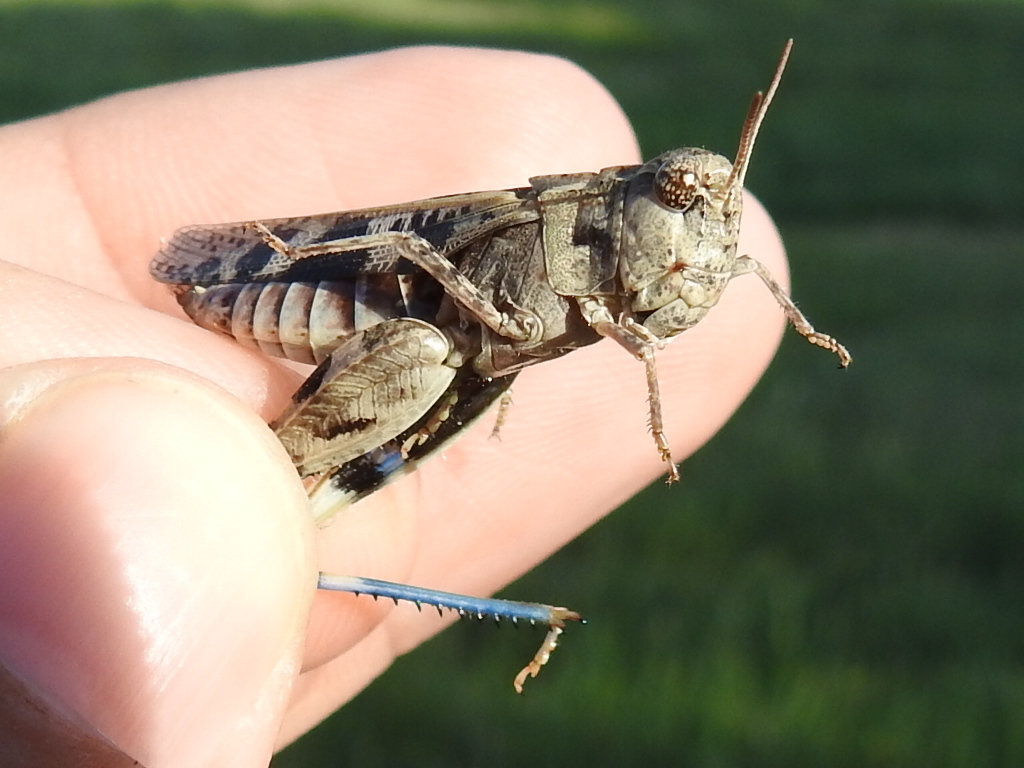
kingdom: Animalia
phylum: Arthropoda
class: Insecta
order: Orthoptera
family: Acrididae
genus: Encoptolophus
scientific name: Encoptolophus costalis
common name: Dusky grasshopper
